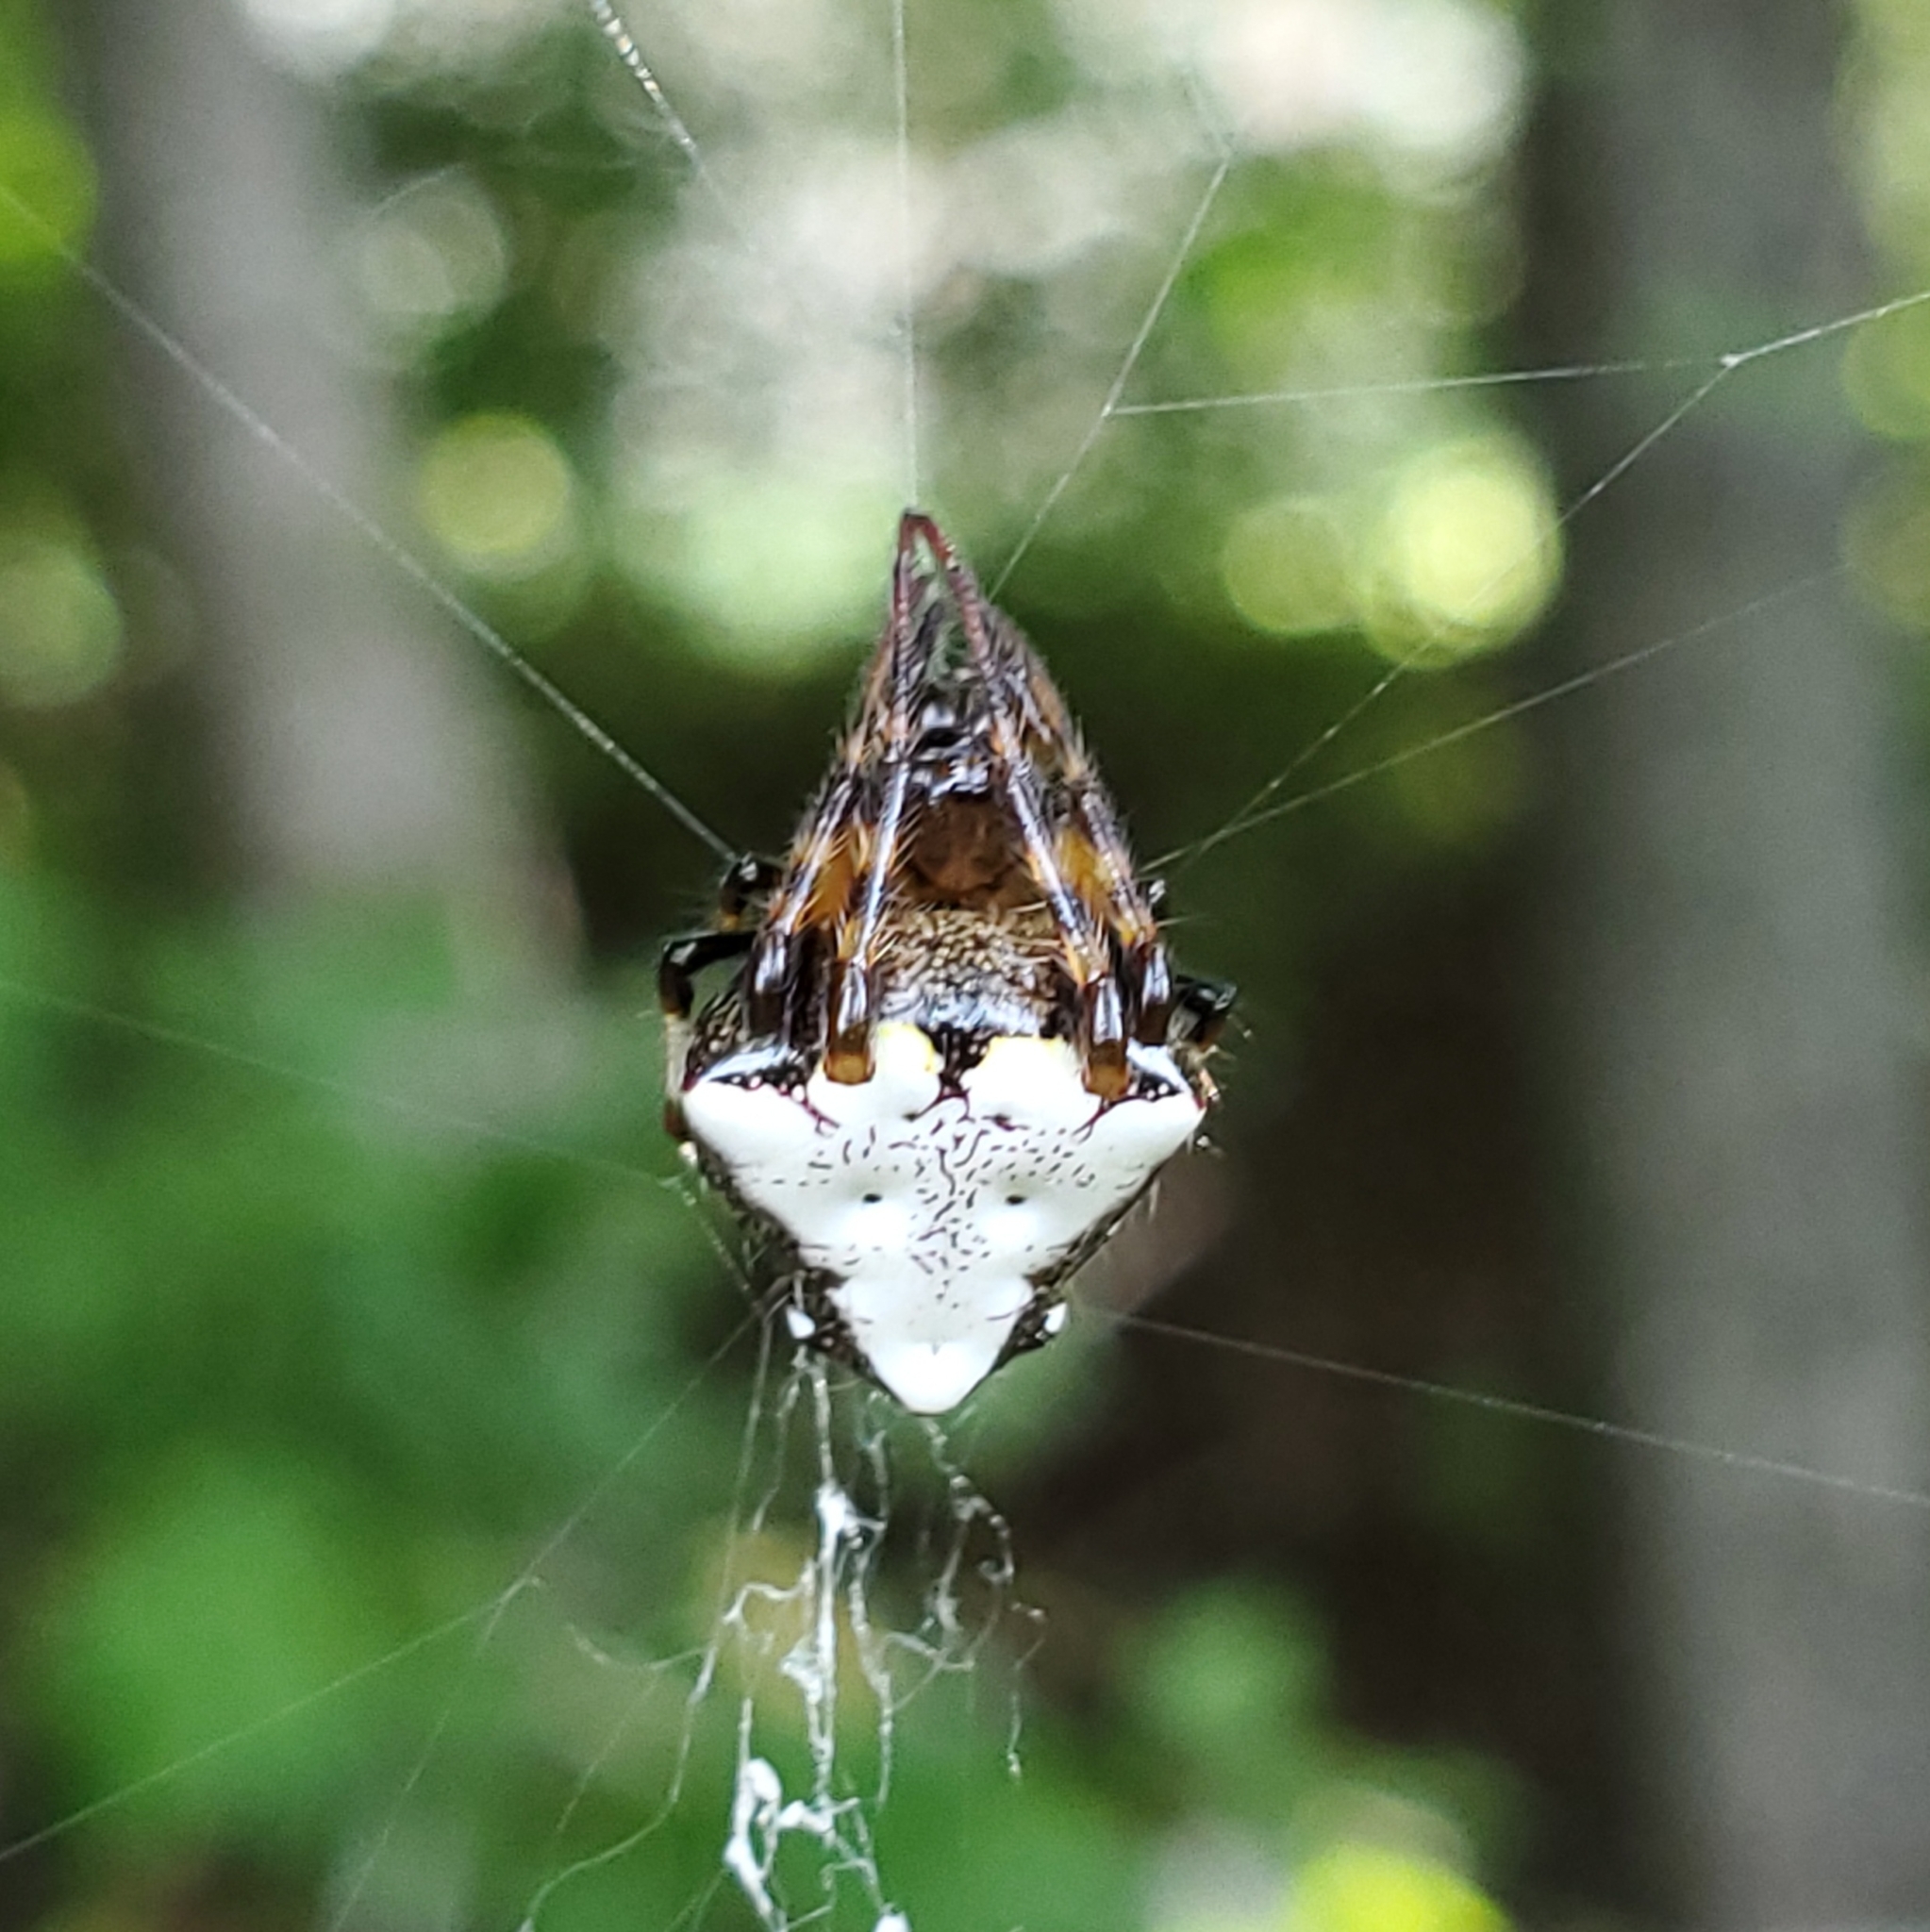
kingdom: Animalia
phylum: Arthropoda
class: Arachnida
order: Araneae
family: Araneidae
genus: Verrucosa
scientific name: Verrucosa arenata
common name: Orb weavers
